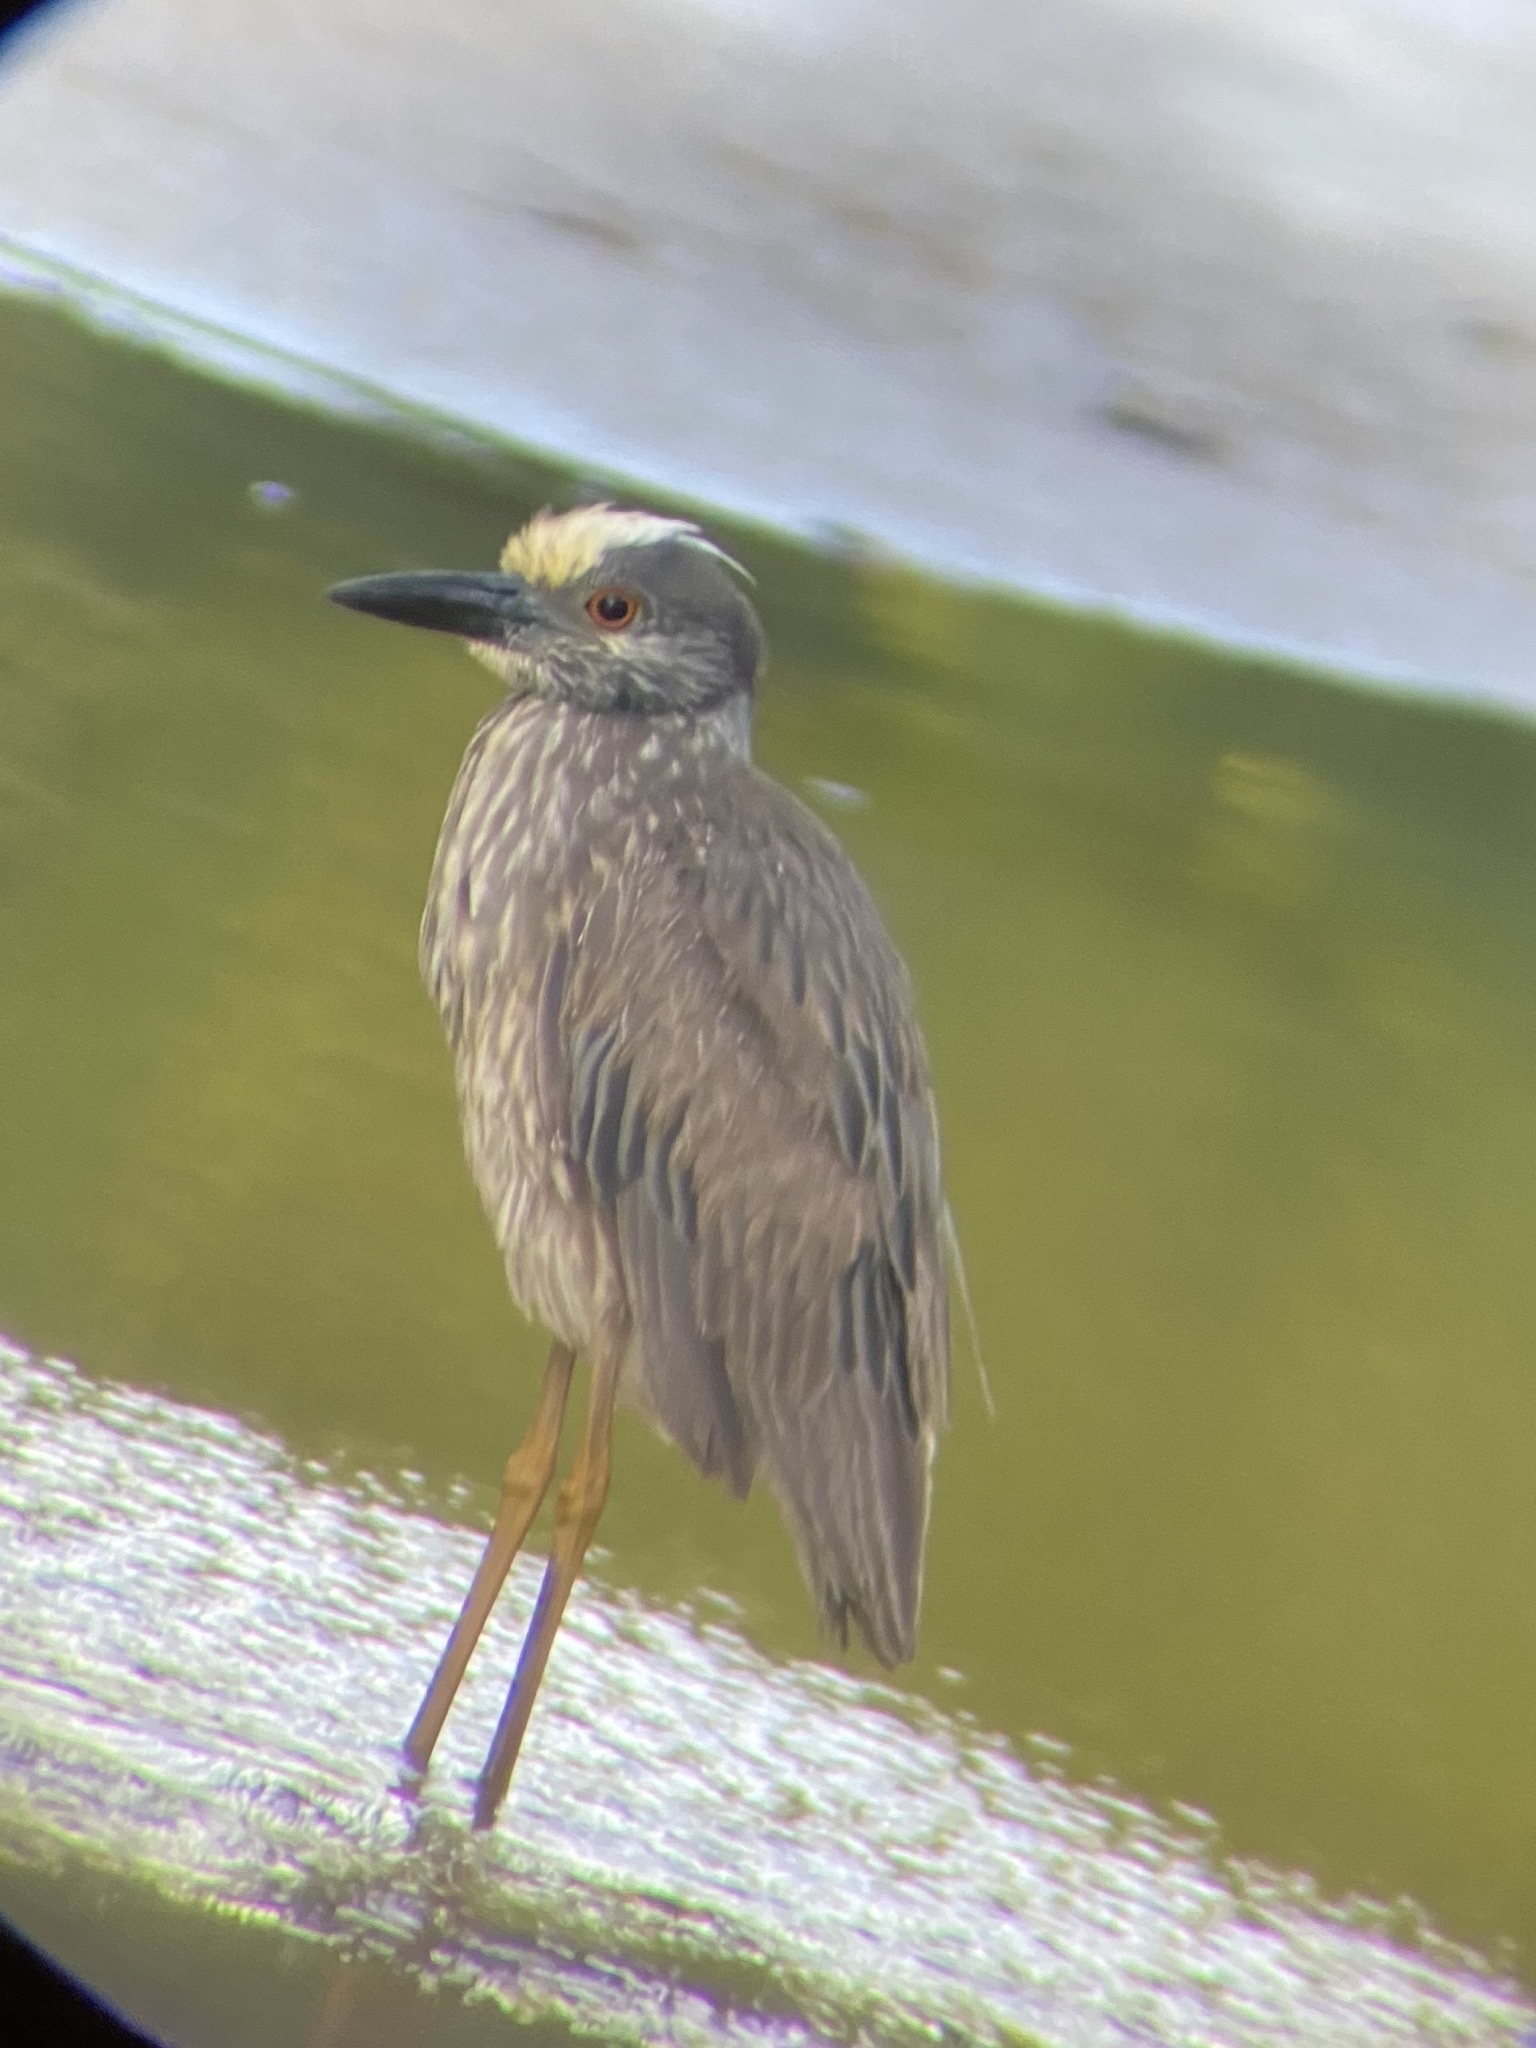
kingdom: Animalia
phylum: Chordata
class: Aves
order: Pelecaniformes
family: Ardeidae
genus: Nyctanassa
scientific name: Nyctanassa violacea
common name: Yellow-crowned night heron
